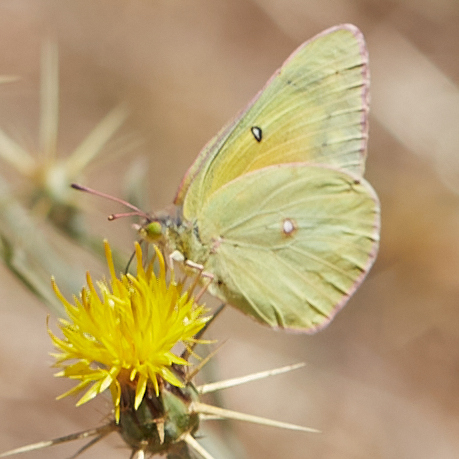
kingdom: Animalia
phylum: Arthropoda
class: Insecta
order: Lepidoptera
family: Pieridae
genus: Colias
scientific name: Colias eurytheme
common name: Alfalfa butterfly
